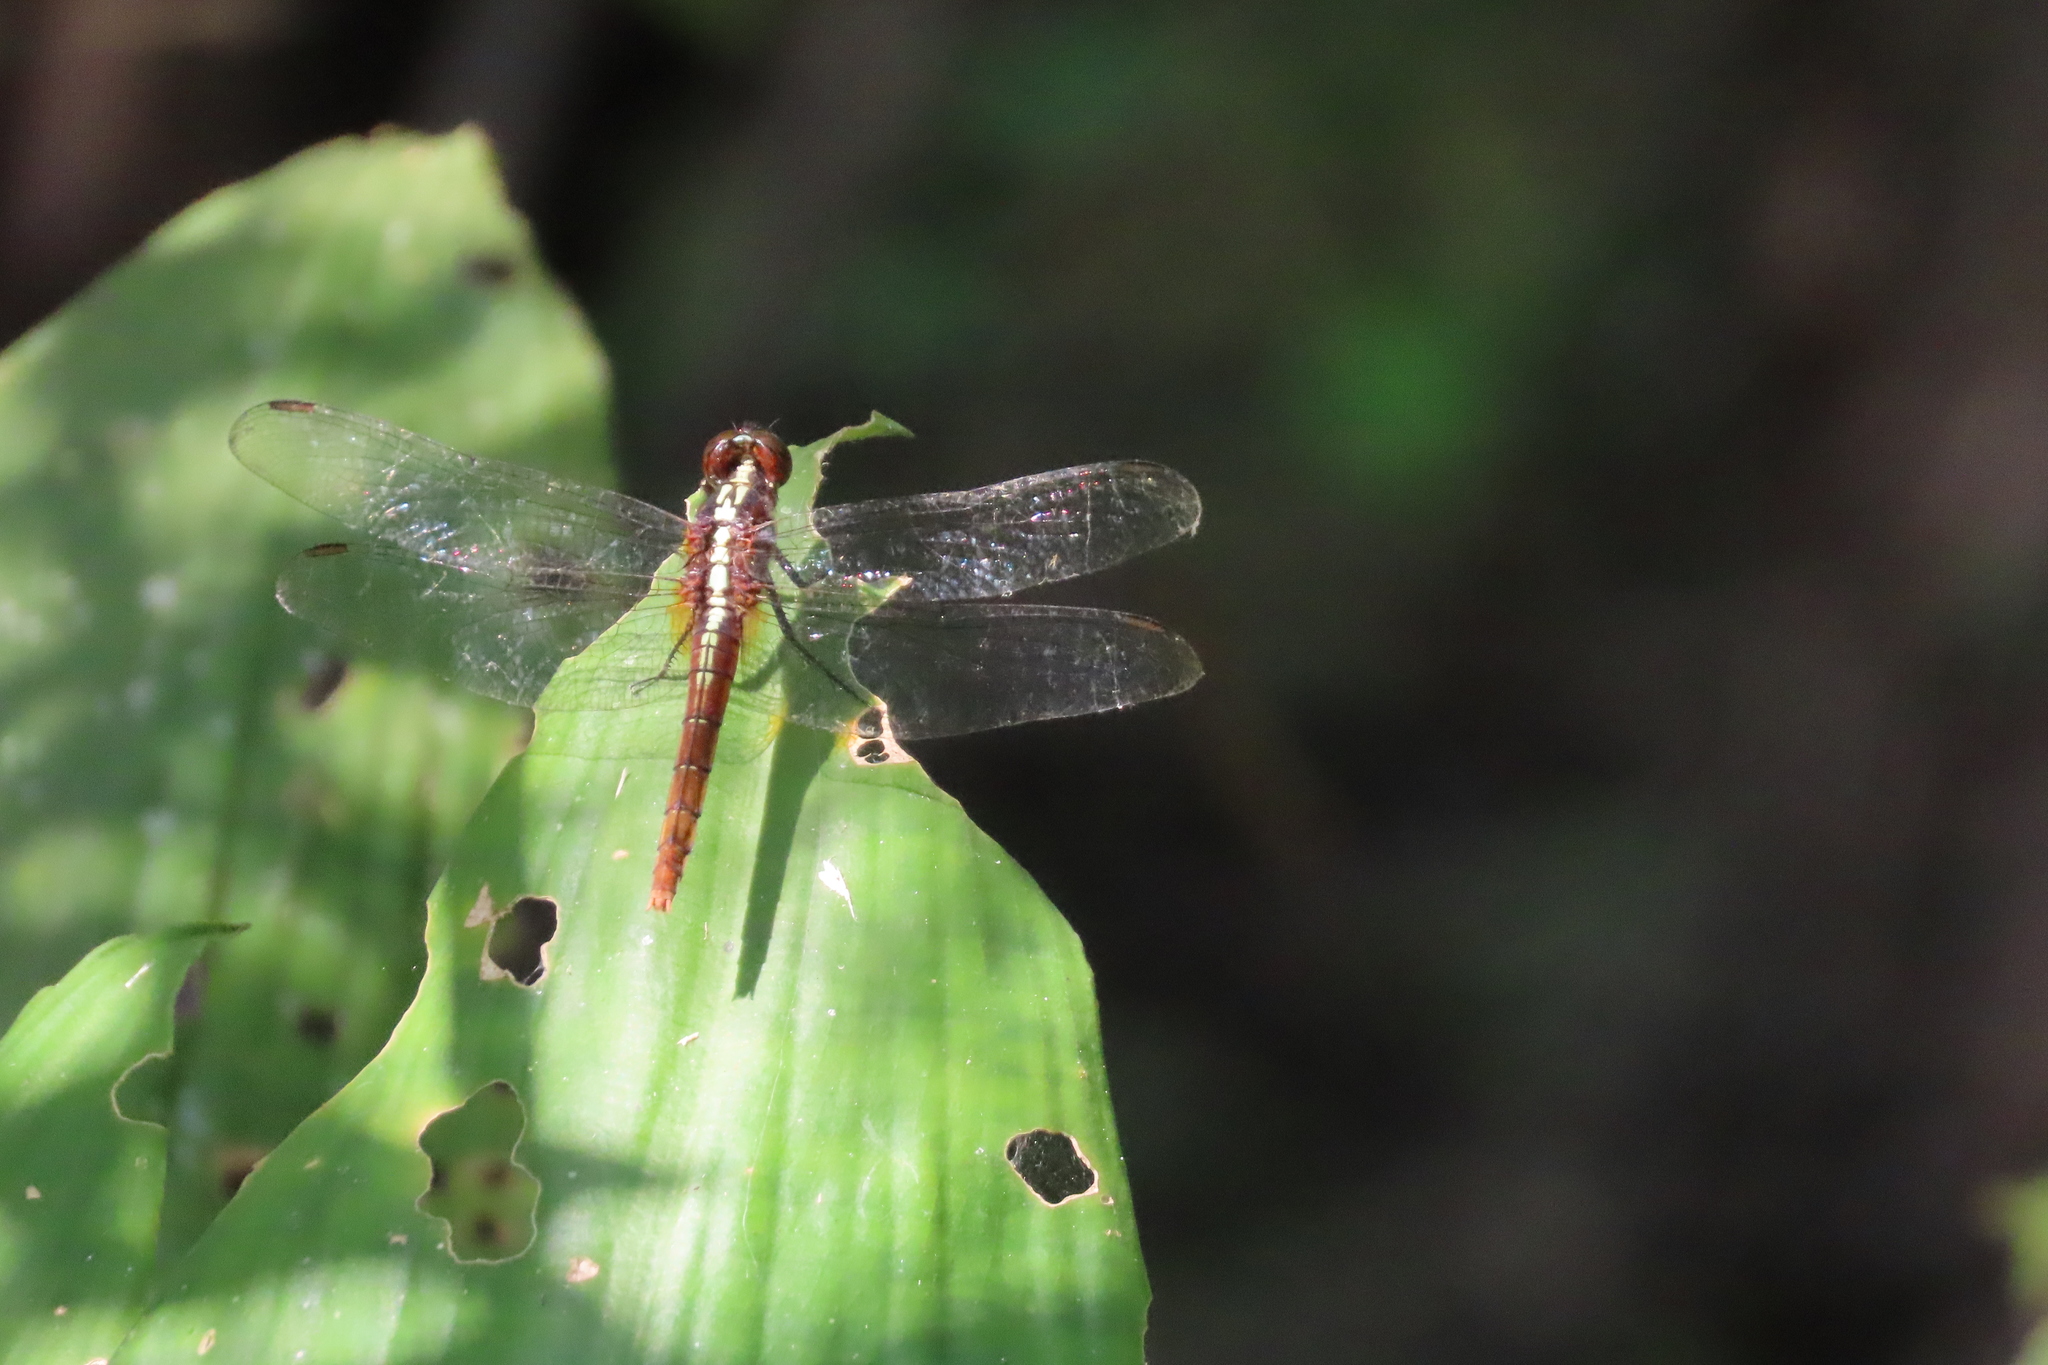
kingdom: Animalia
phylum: Arthropoda
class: Insecta
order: Odonata
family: Libellulidae
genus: Rhodothemis
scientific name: Rhodothemis rufa
